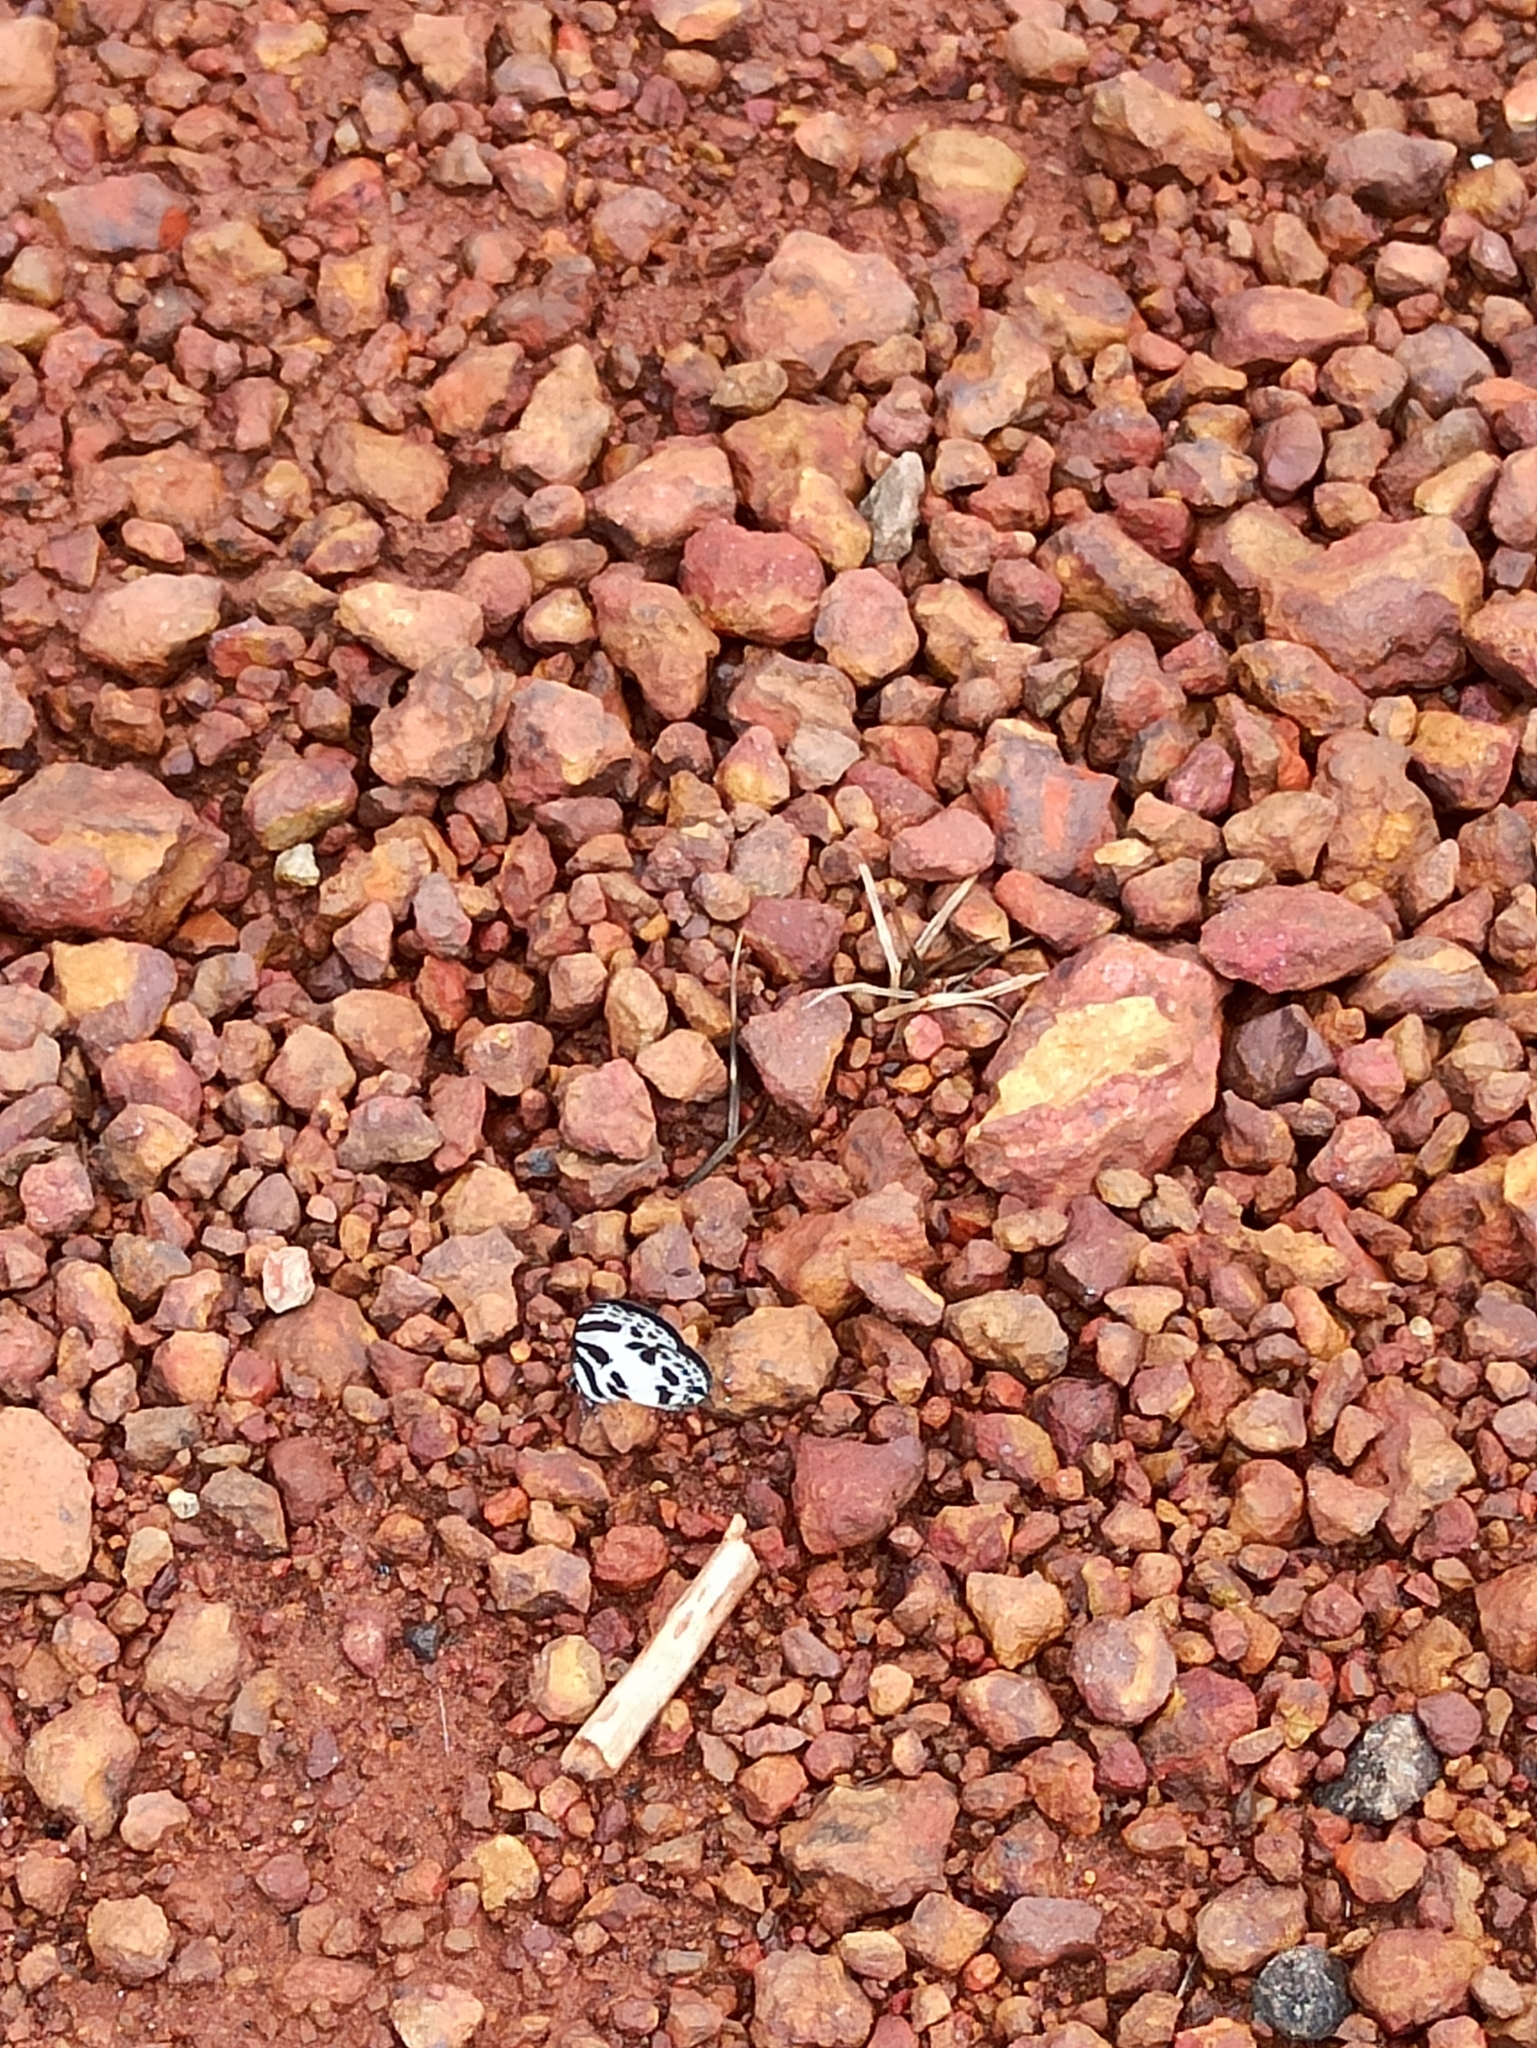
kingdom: Animalia
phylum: Arthropoda
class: Insecta
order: Lepidoptera
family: Lycaenidae
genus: Discolampa
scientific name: Discolampa ethion
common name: Banded blue pierrot
